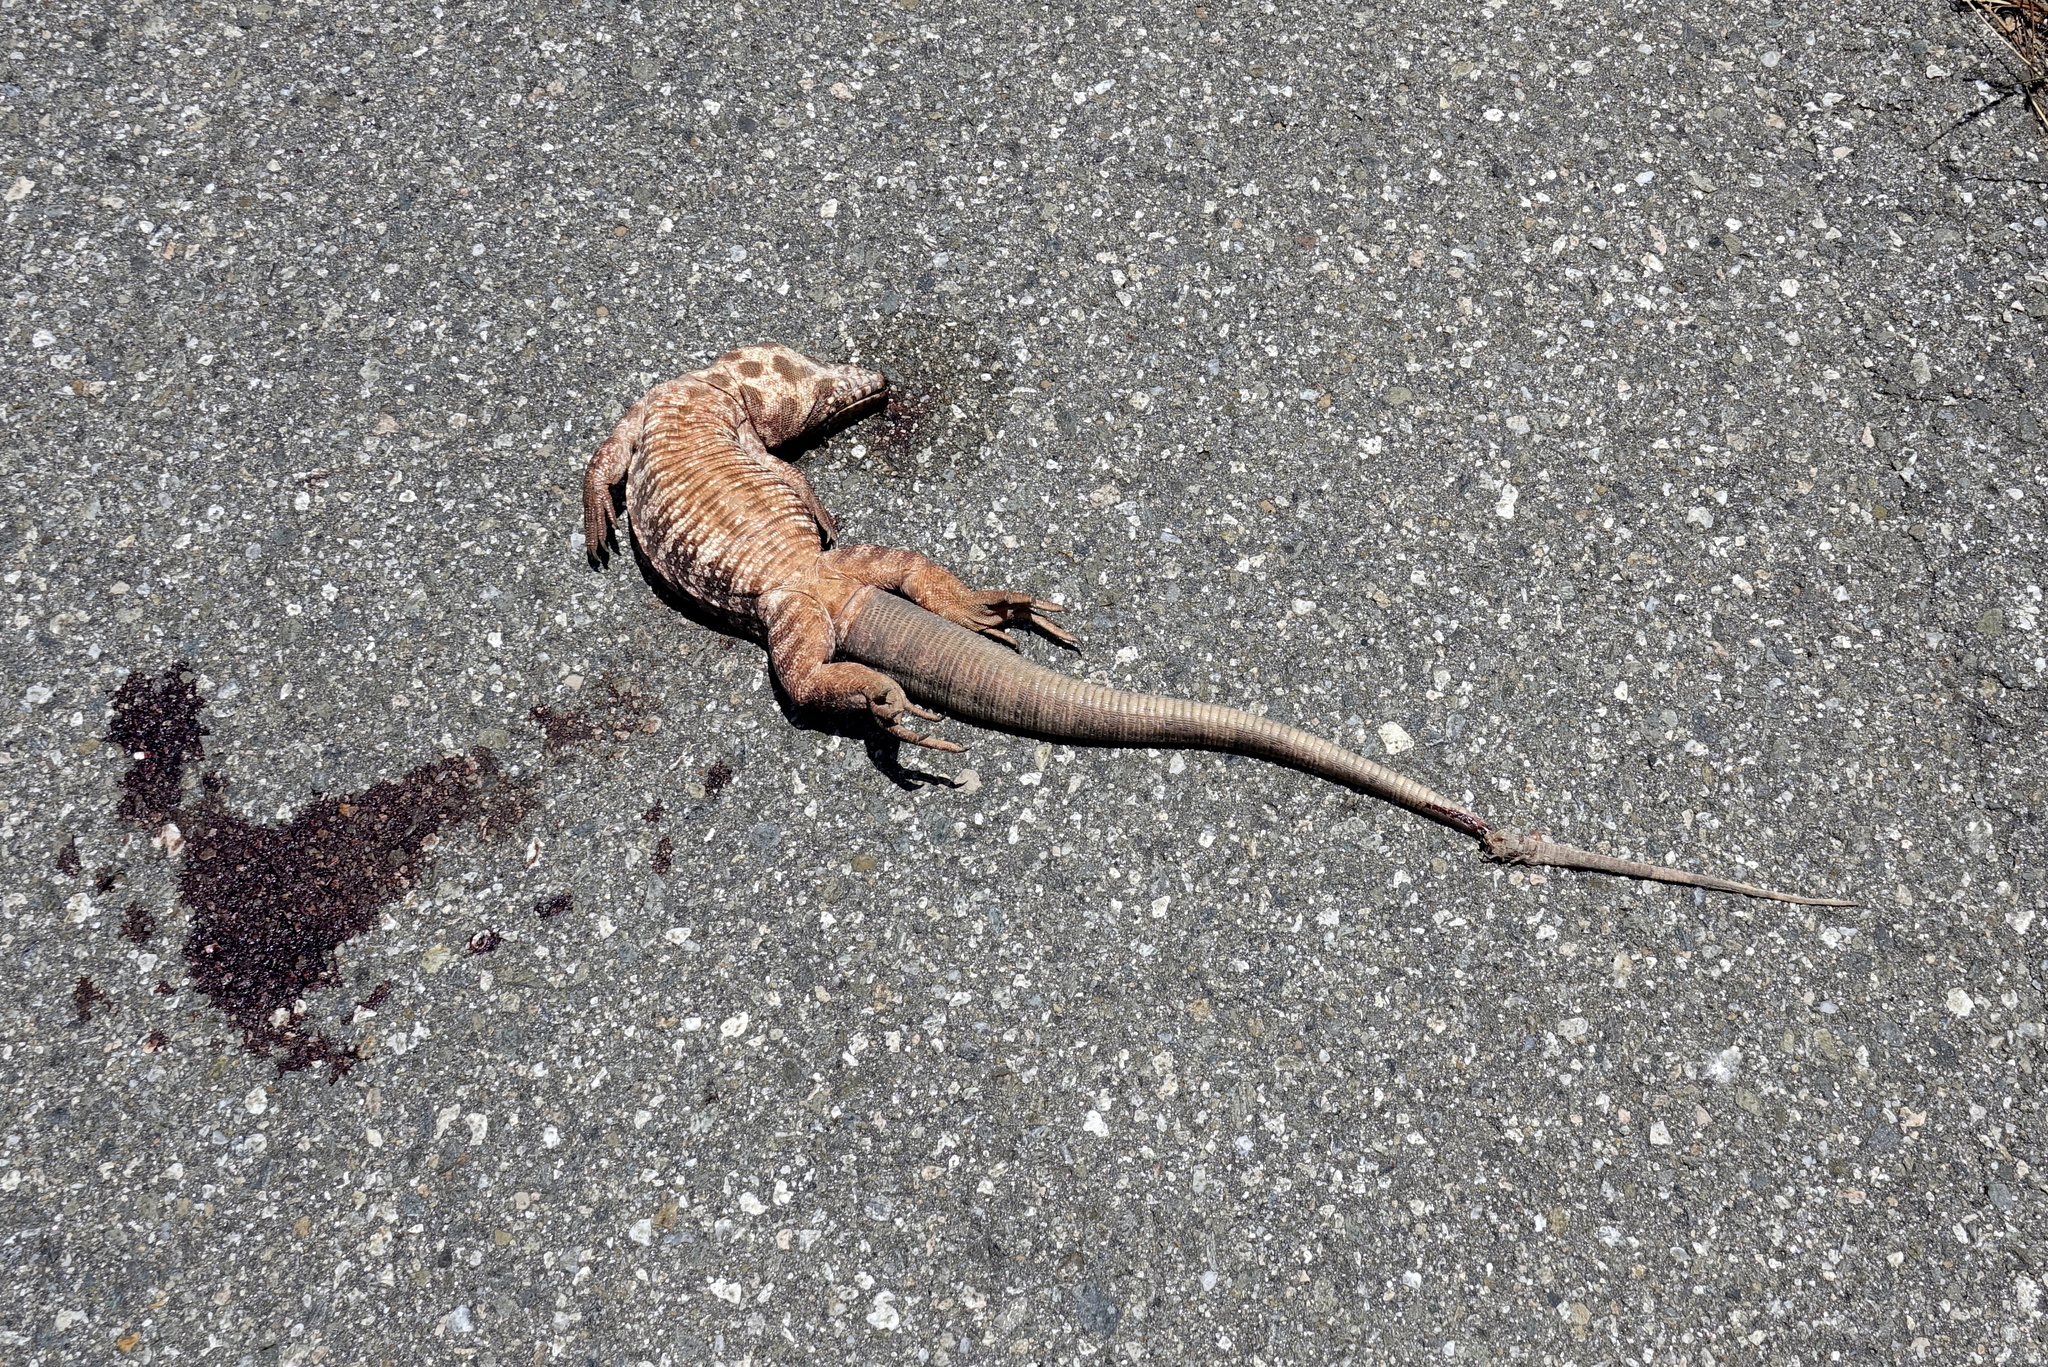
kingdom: Animalia
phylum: Chordata
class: Squamata
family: Teiidae
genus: Salvator
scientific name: Salvator rufescens
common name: Red tegu
